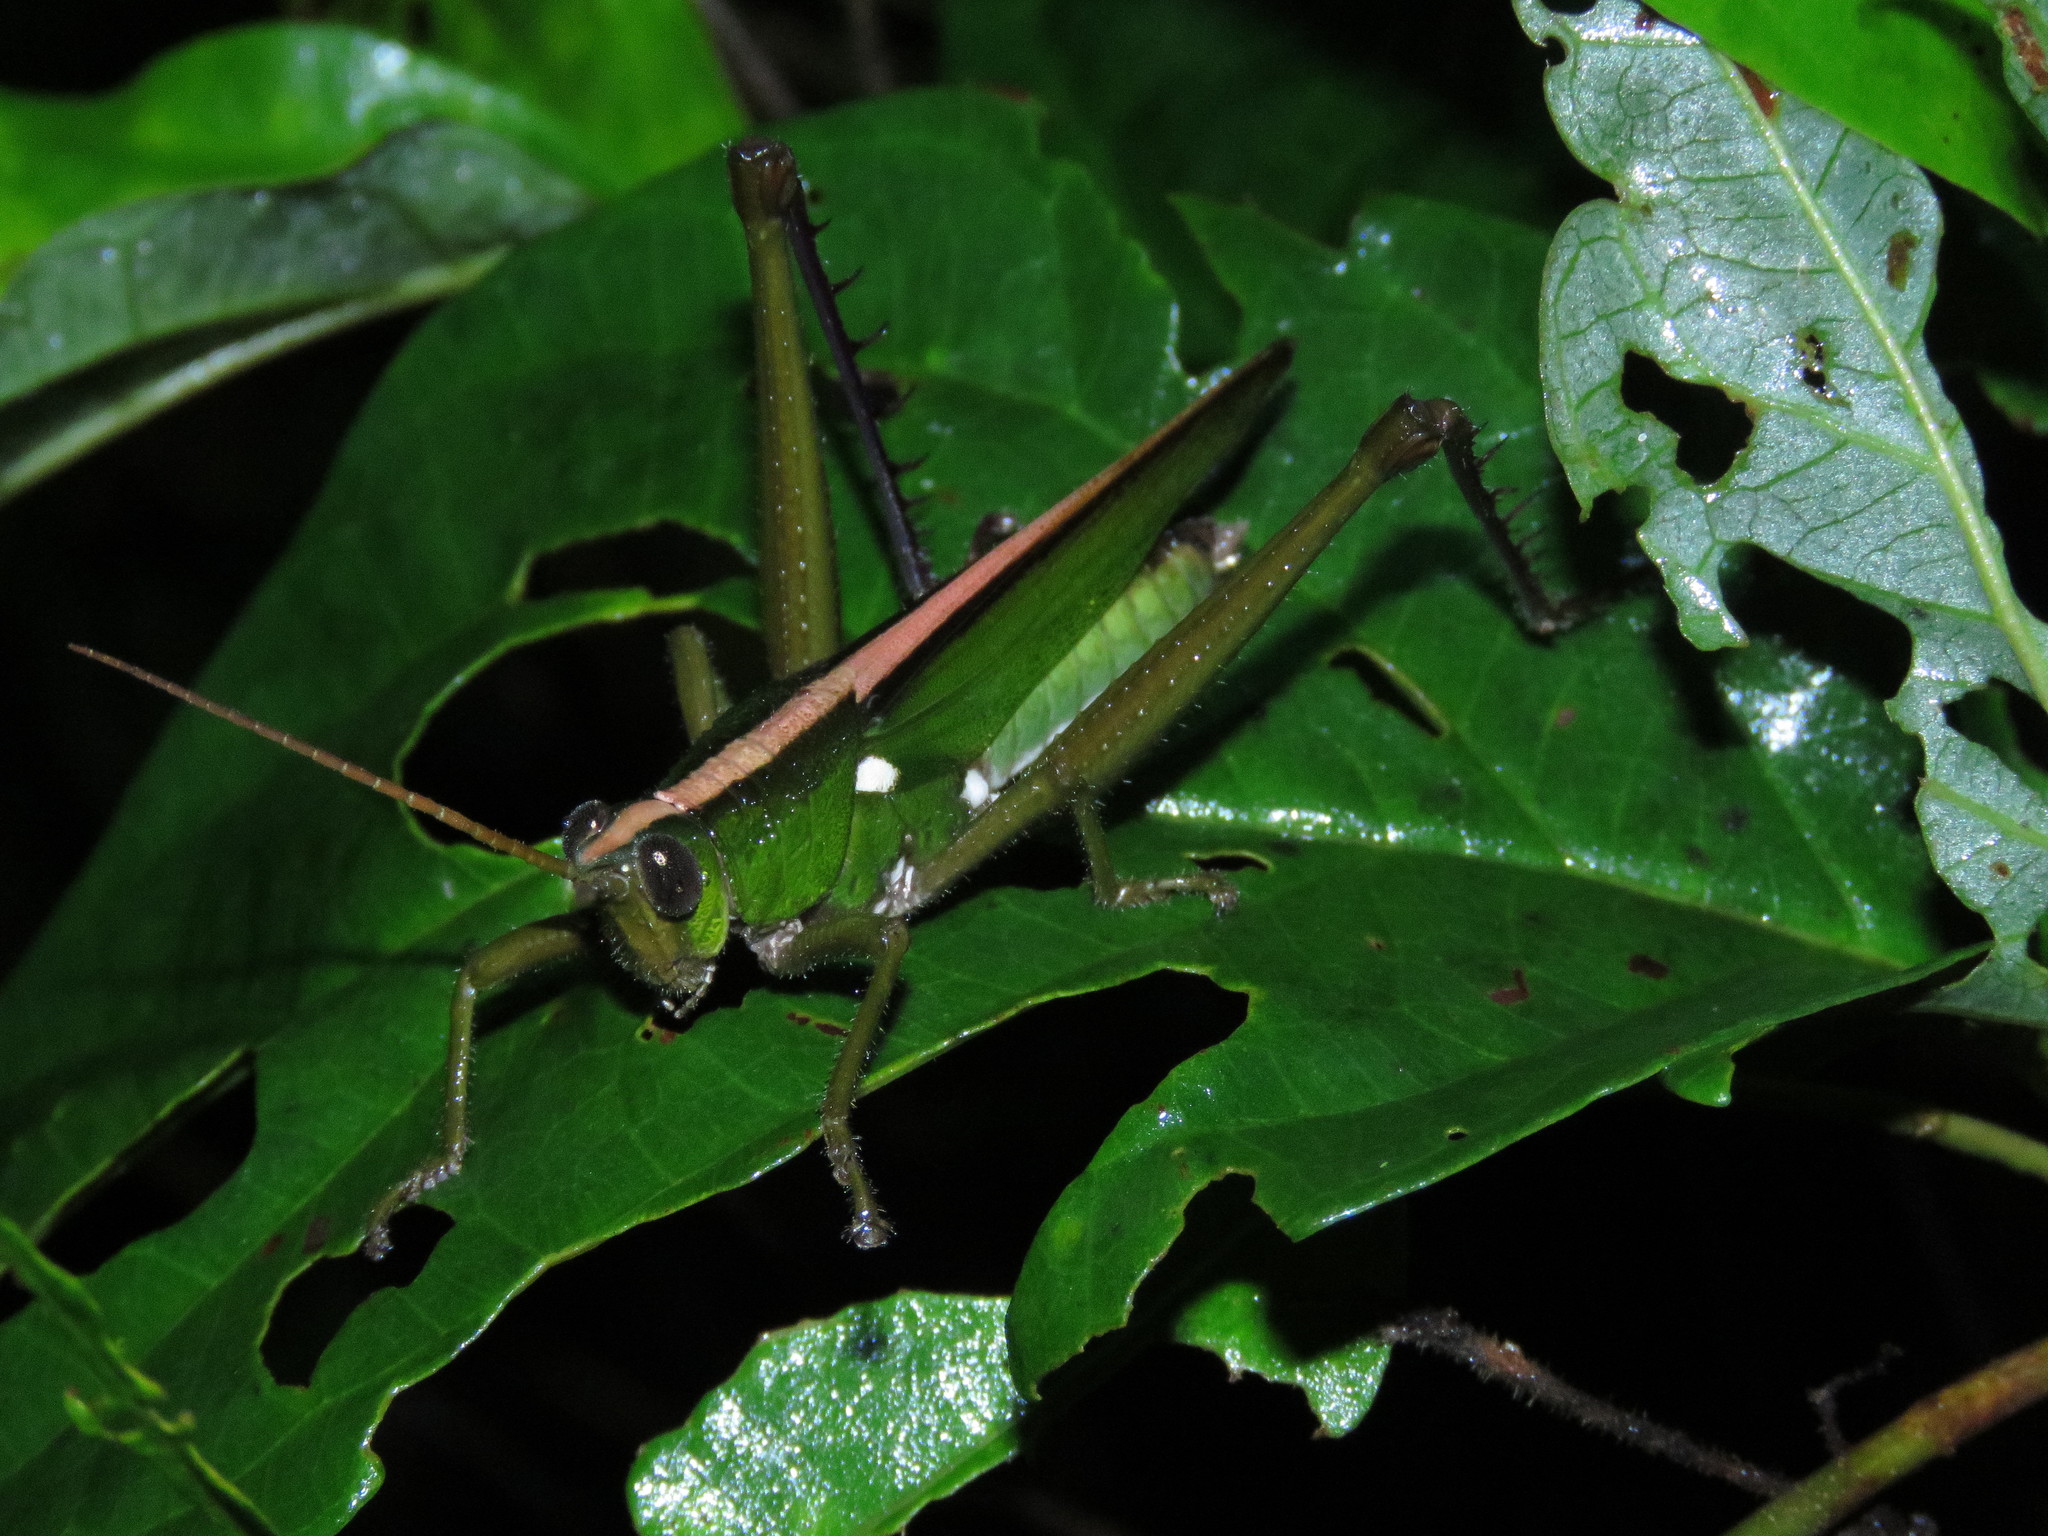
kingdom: Animalia
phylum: Arthropoda
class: Insecta
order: Orthoptera
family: Romaleidae
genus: Agriacris
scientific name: Agriacris basalis
